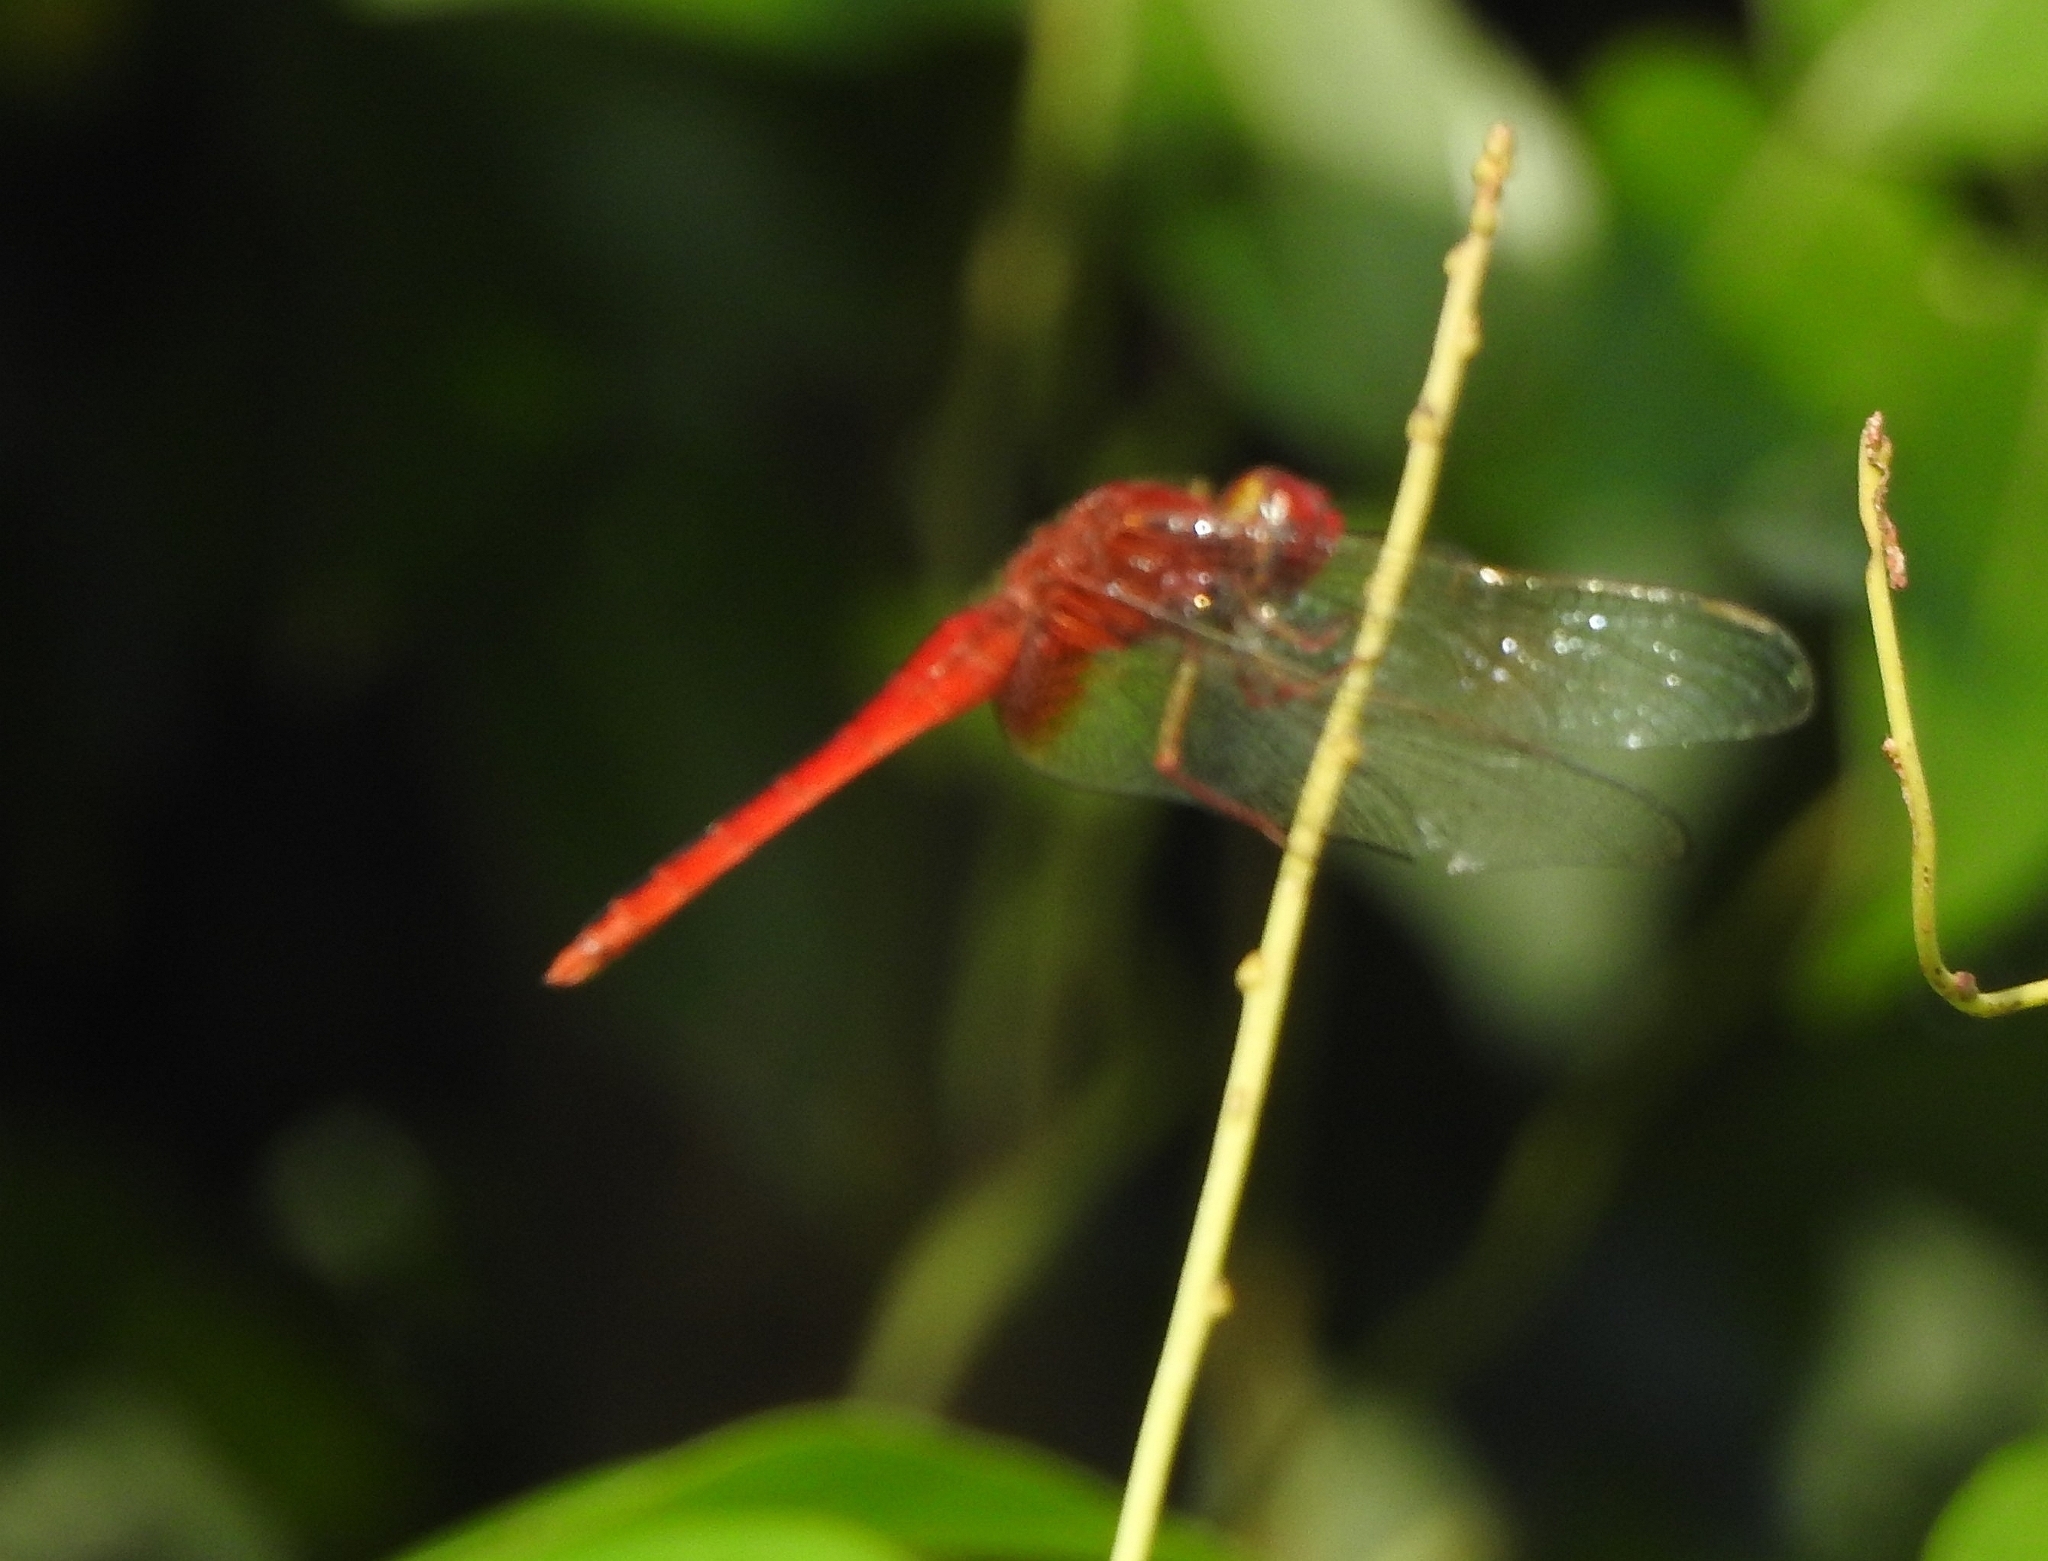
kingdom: Animalia
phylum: Arthropoda
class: Insecta
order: Odonata
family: Libellulidae
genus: Crocothemis
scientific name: Crocothemis servilia
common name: Scarlet skimmer
